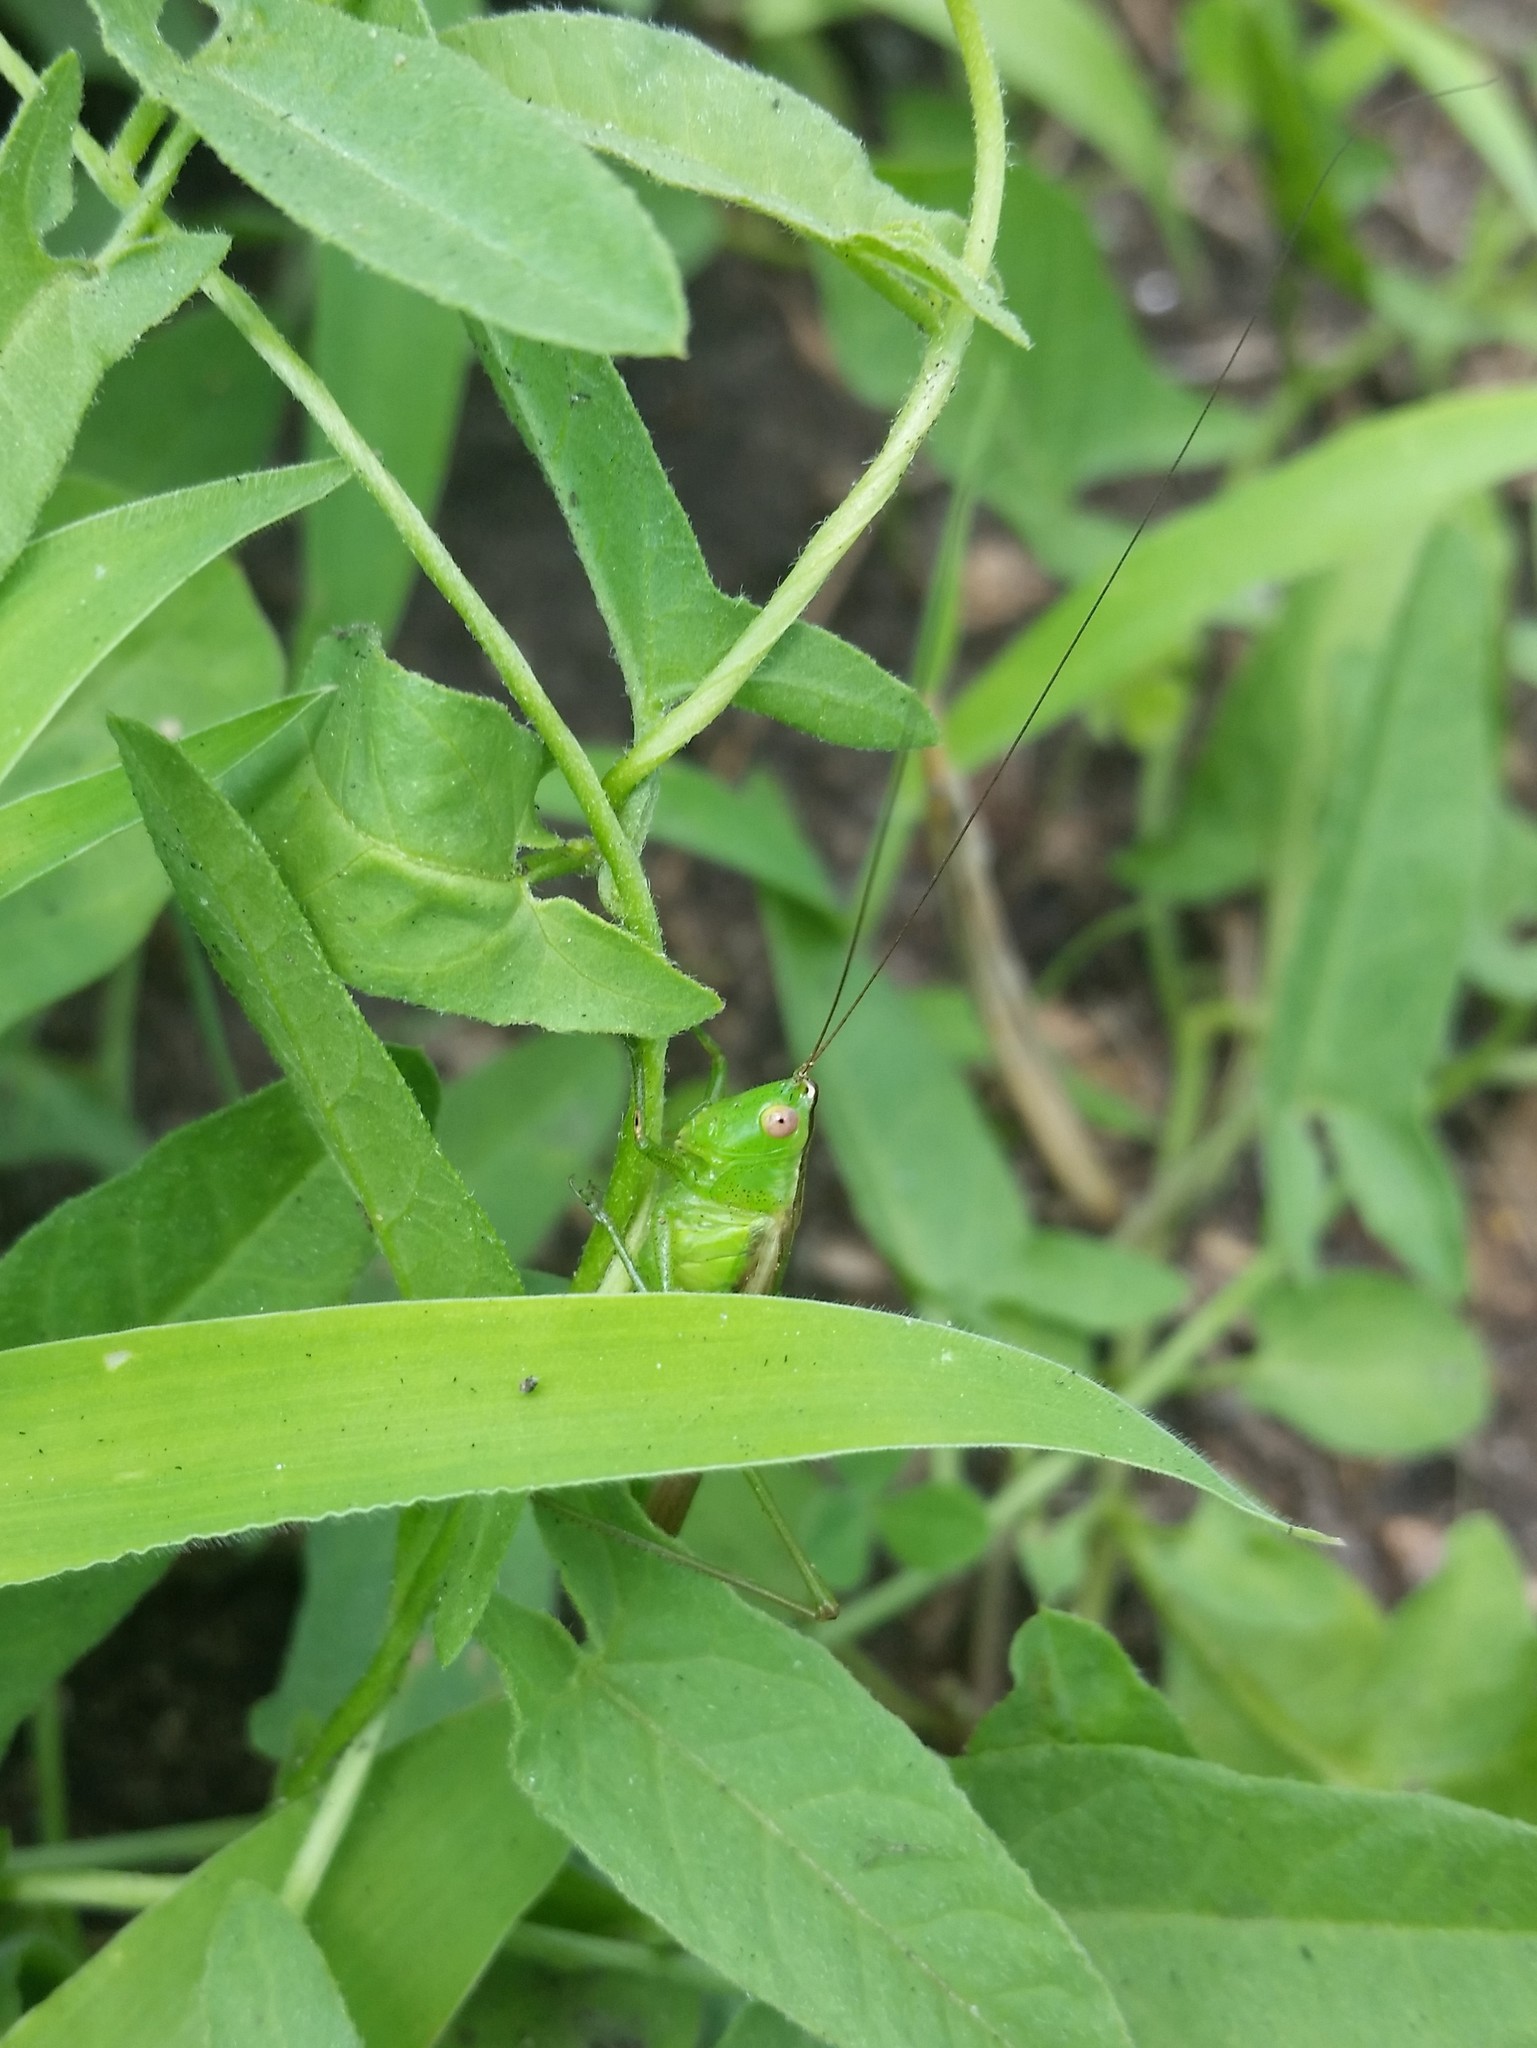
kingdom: Animalia
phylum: Arthropoda
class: Insecta
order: Orthoptera
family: Tettigoniidae
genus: Conocephalus
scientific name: Conocephalus fasciatus
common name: Slender meadow katydid
